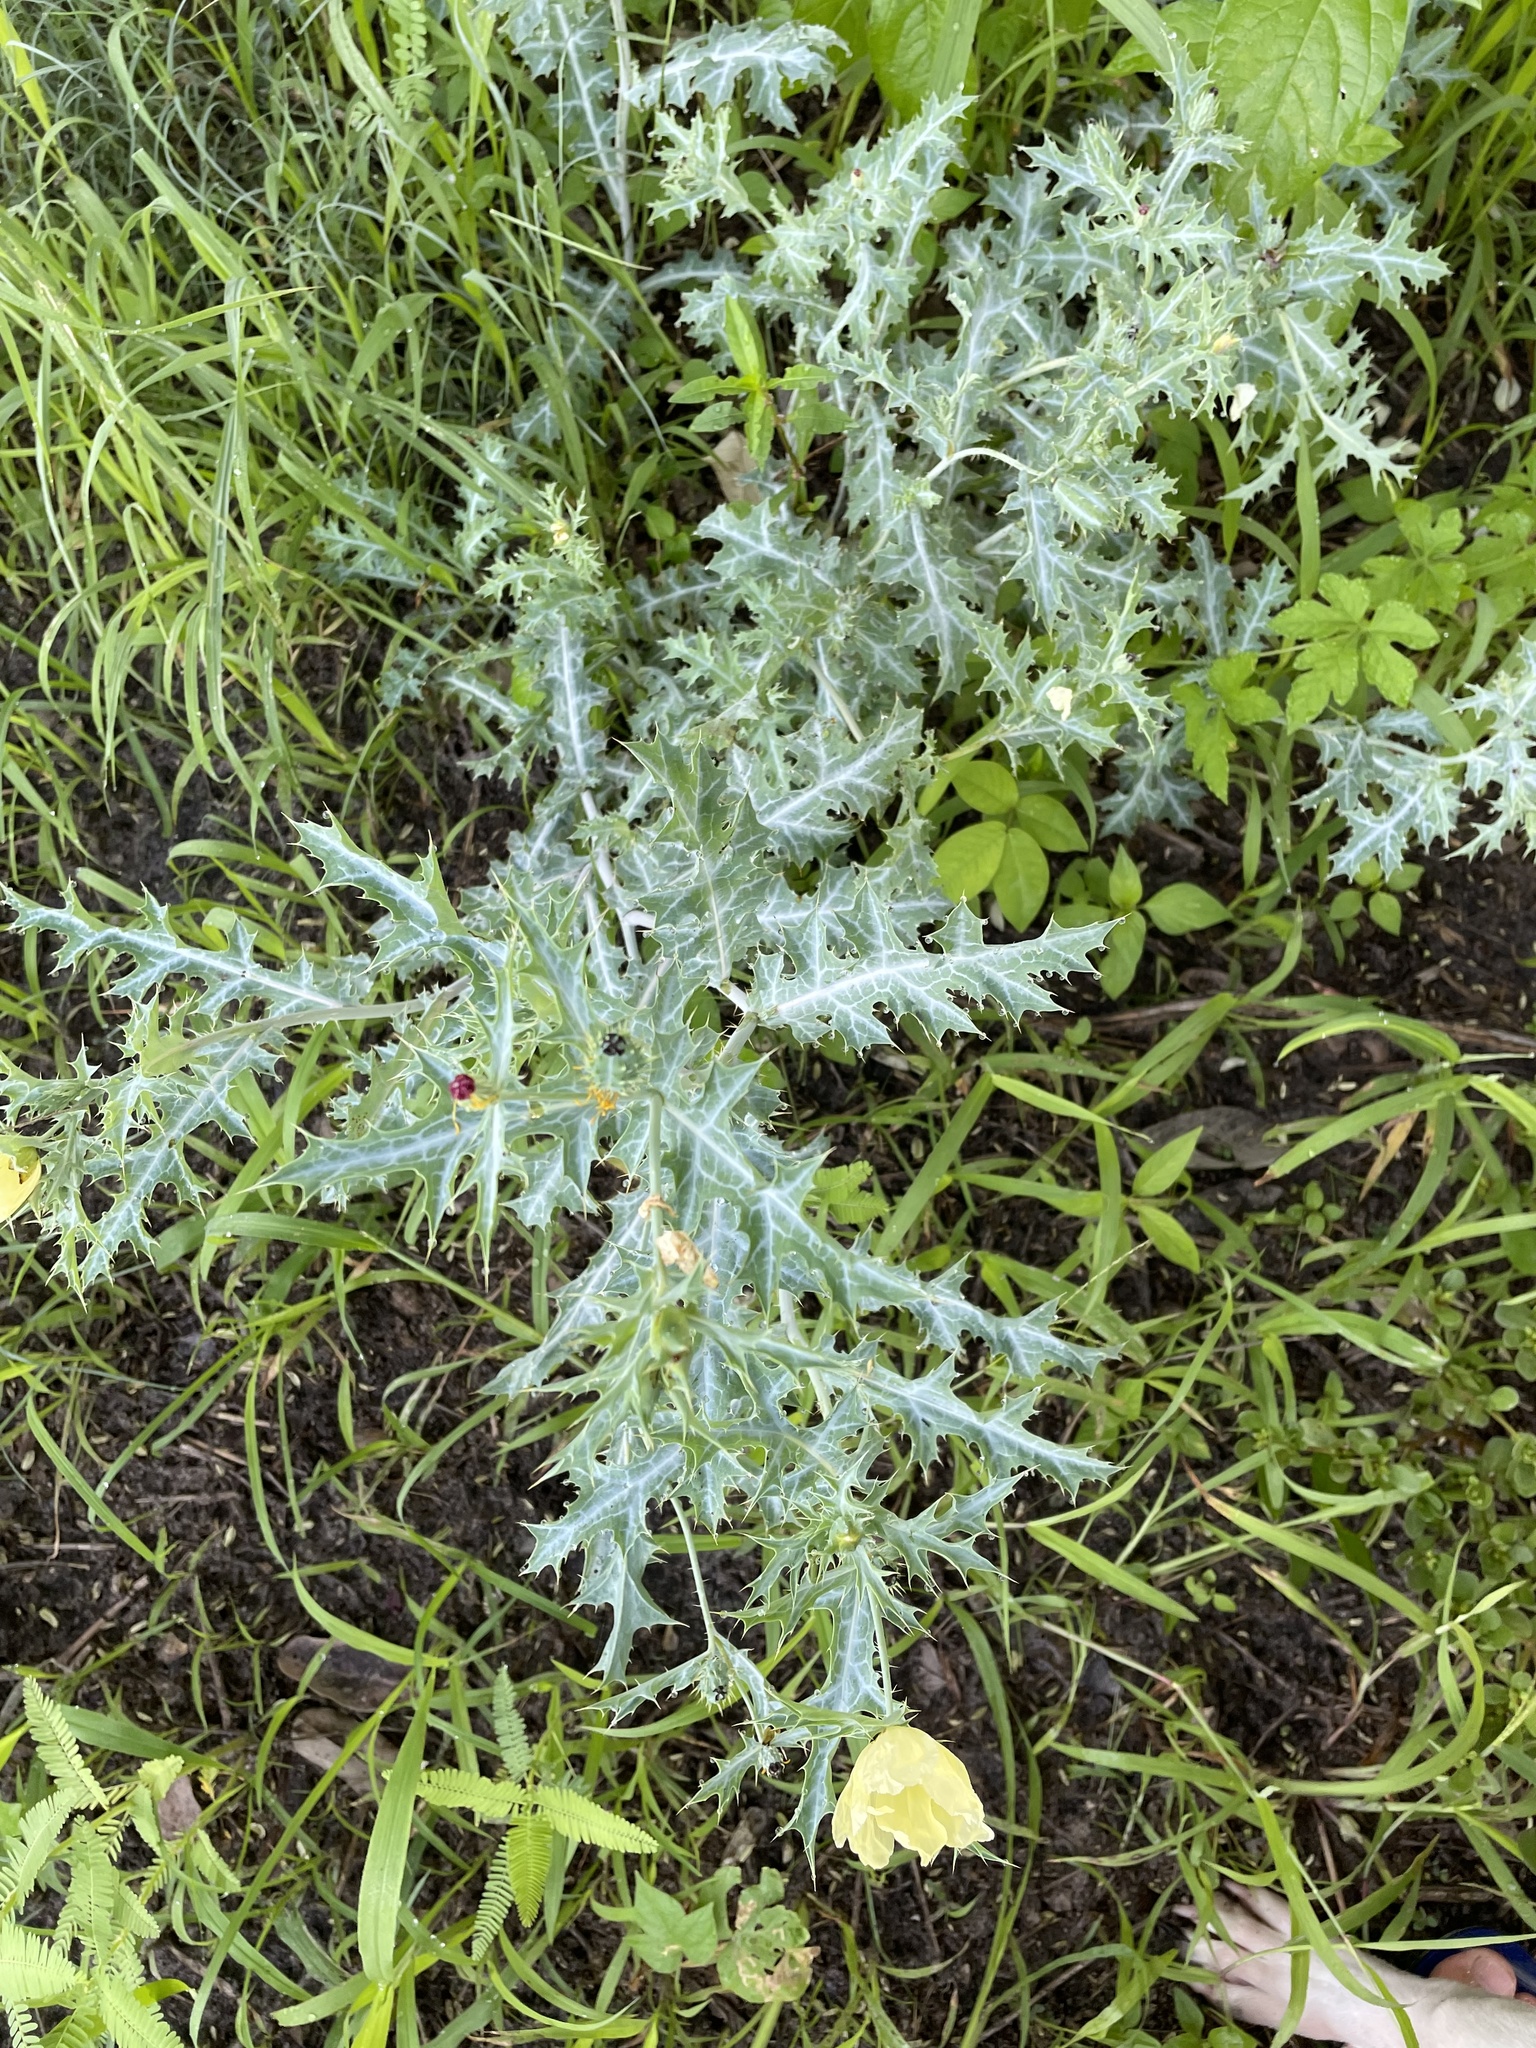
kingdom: Plantae
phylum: Tracheophyta
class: Magnoliopsida
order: Ranunculales
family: Papaveraceae
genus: Argemone
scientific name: Argemone ochroleuca
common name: White-flower mexican-poppy
